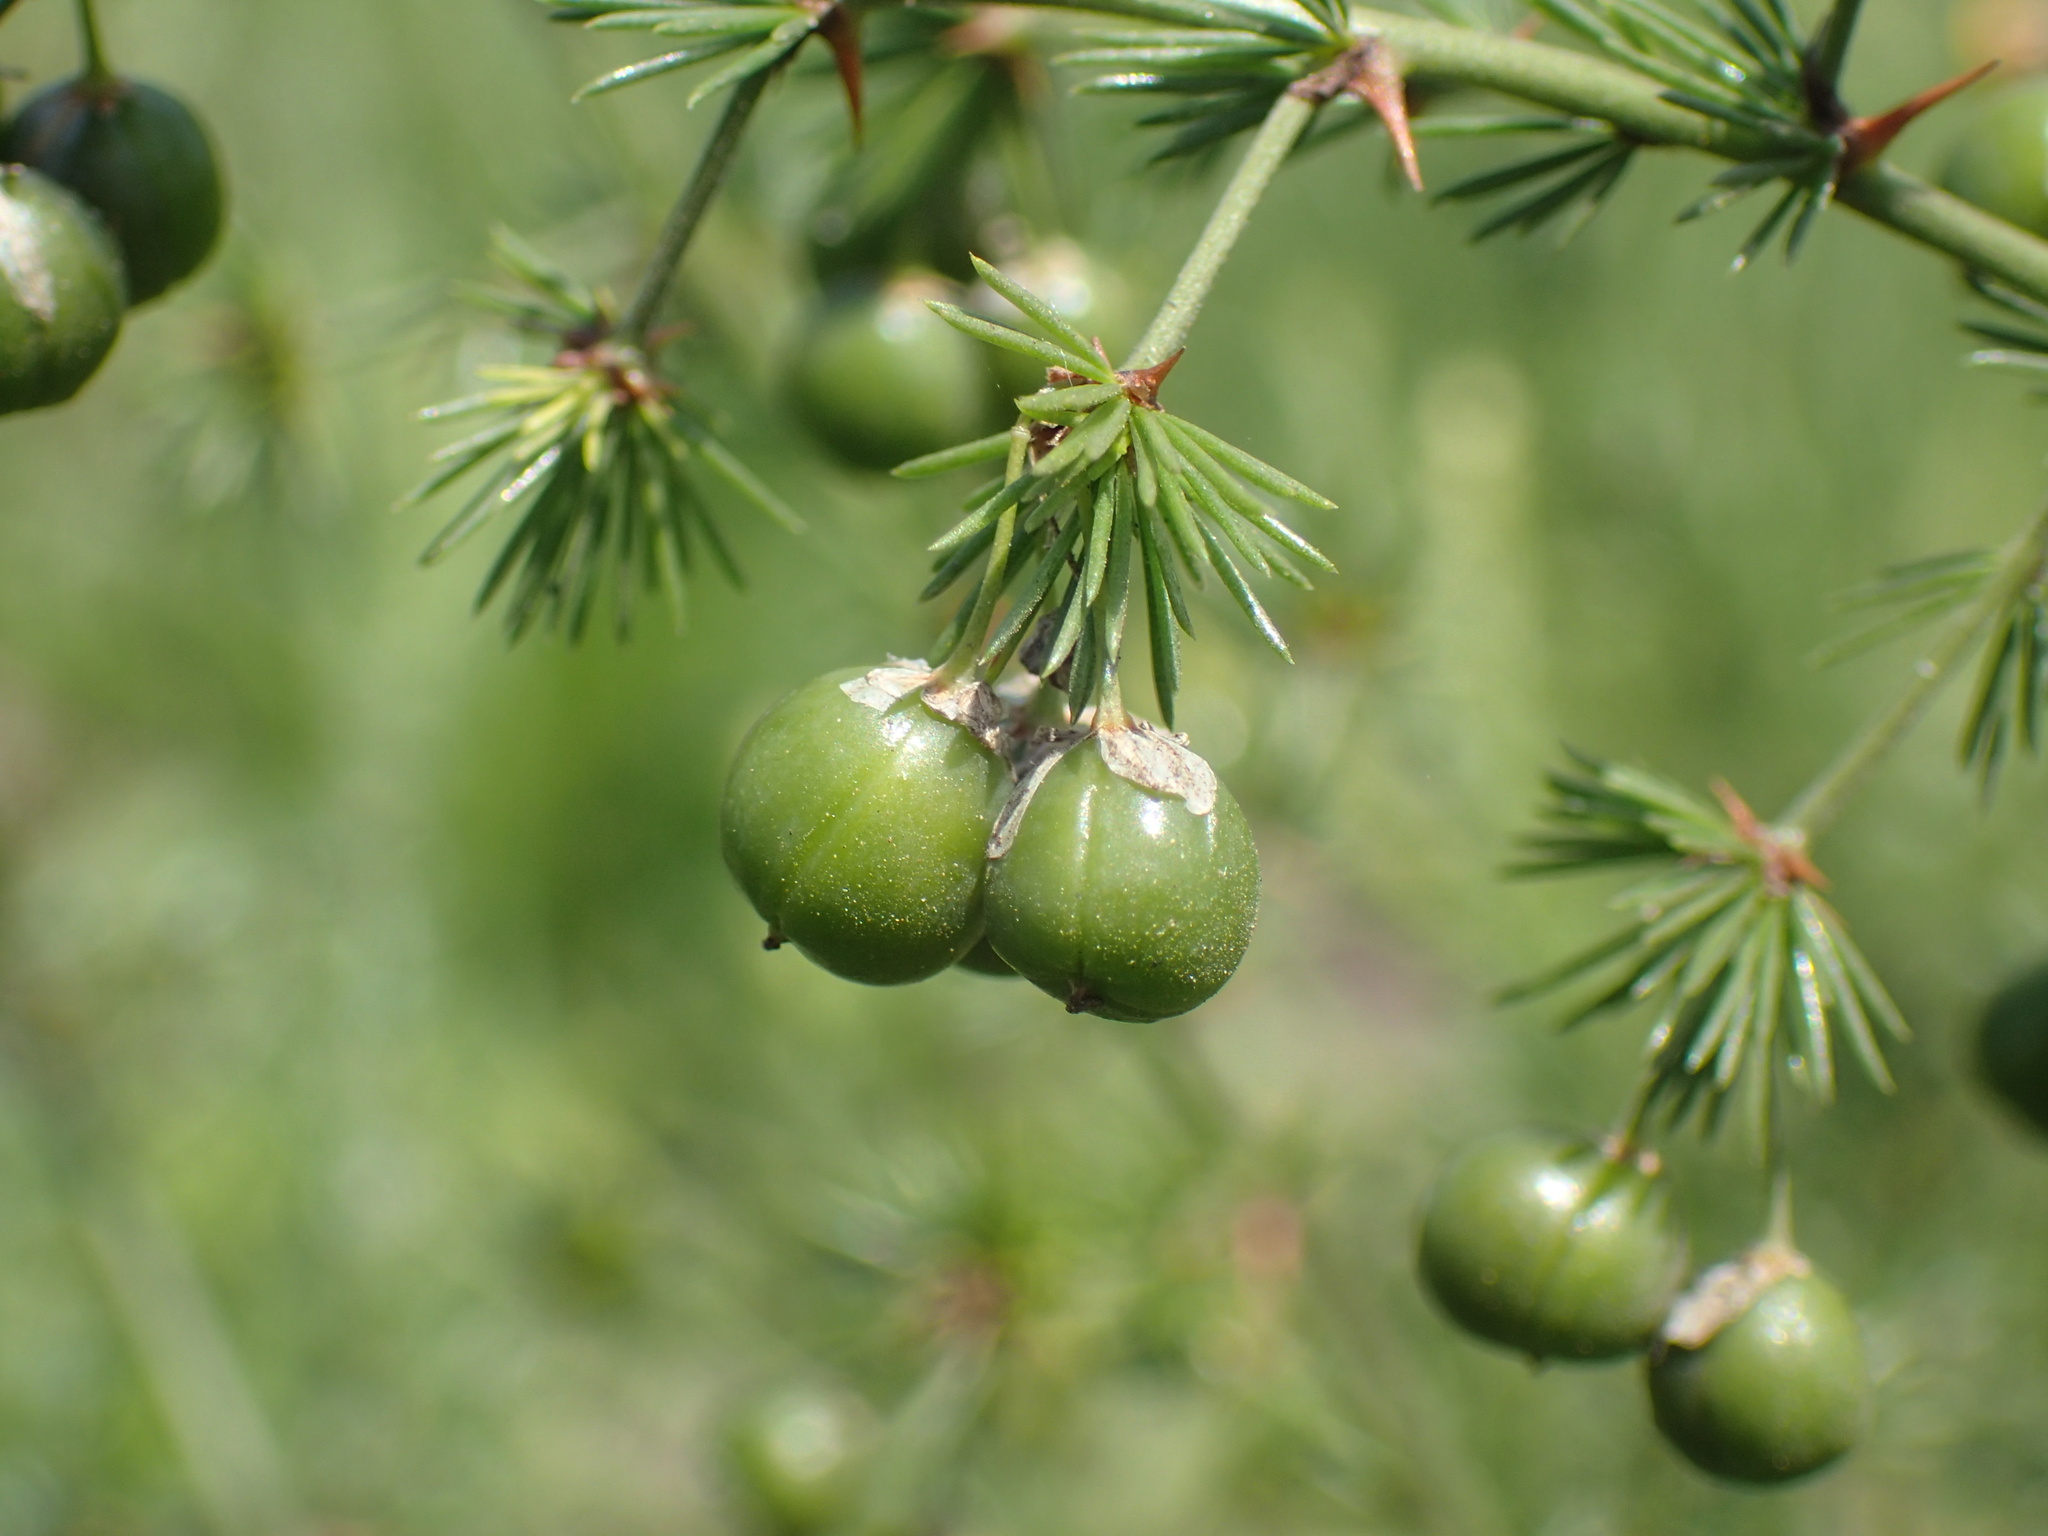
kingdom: Plantae
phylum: Tracheophyta
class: Liliopsida
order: Asparagales
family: Asparagaceae
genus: Asparagus
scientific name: Asparagus africanus
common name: Asparagus-fern
